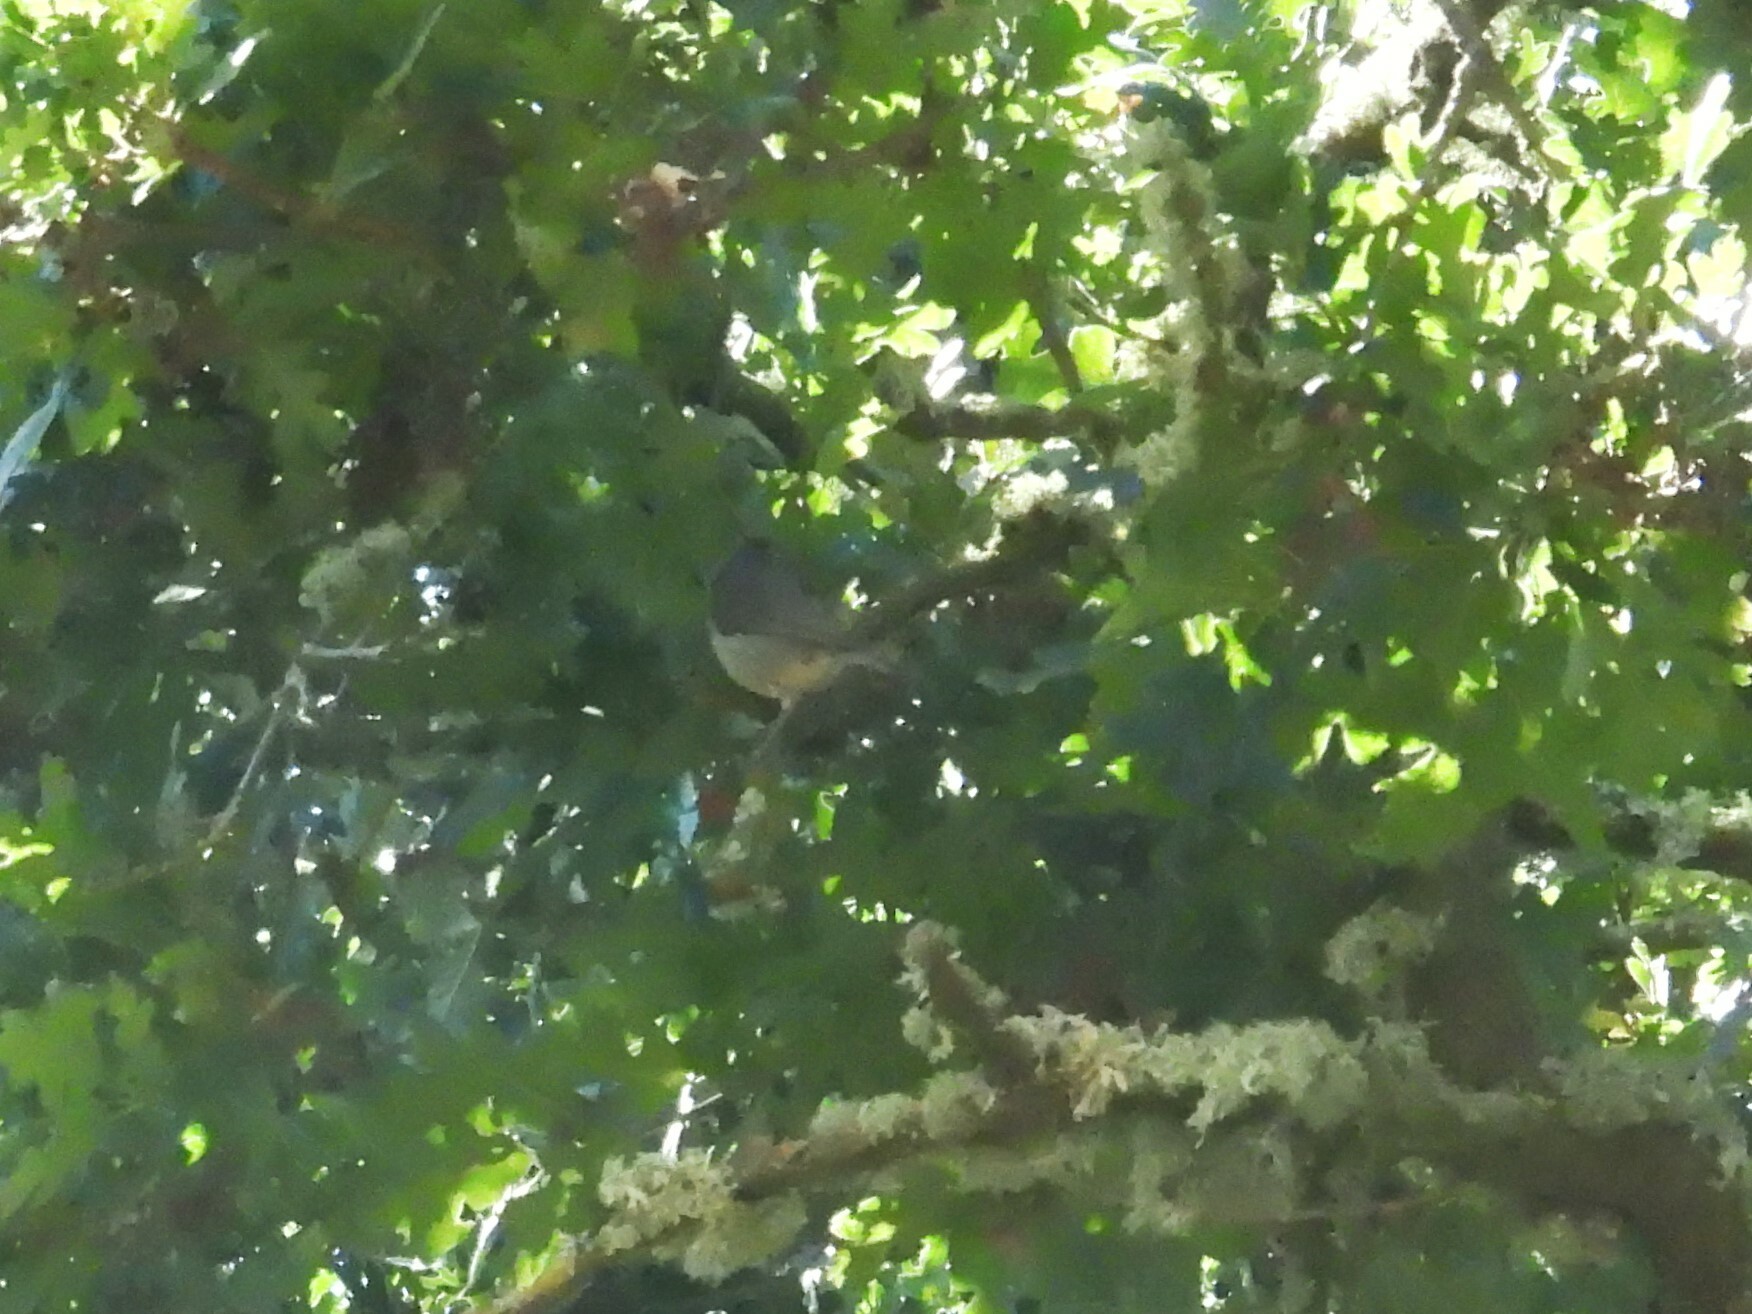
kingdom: Animalia
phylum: Chordata
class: Aves
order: Passeriformes
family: Paridae
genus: Baeolophus
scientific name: Baeolophus inornatus
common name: Oak titmouse
